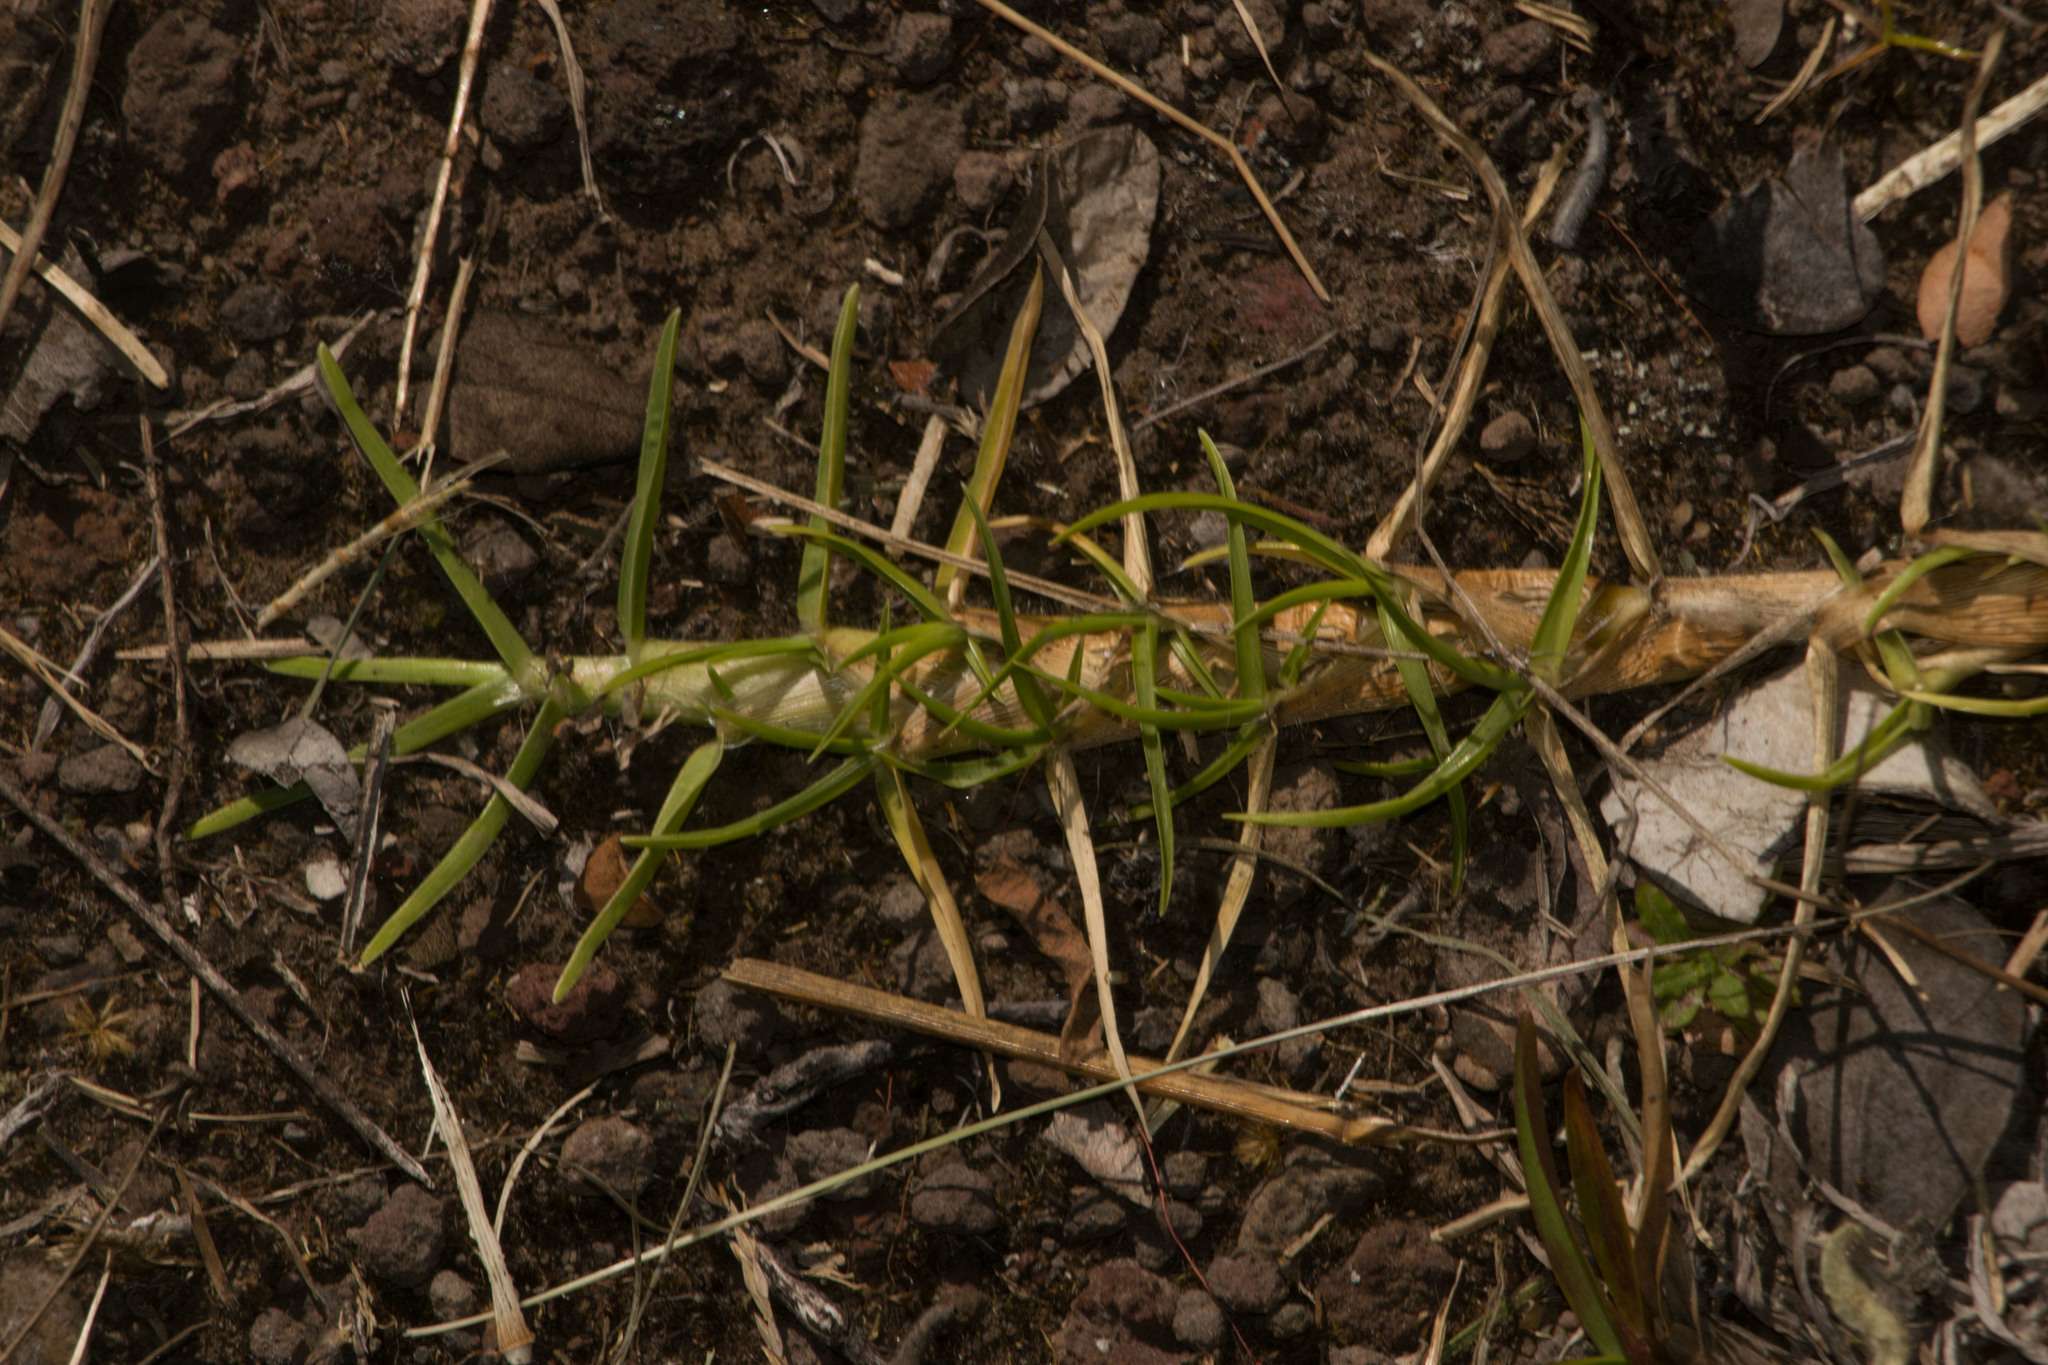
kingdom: Plantae
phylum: Tracheophyta
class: Liliopsida
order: Poales
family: Poaceae
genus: Cenchrus
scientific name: Cenchrus clandestinus
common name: Kikuyugrass
